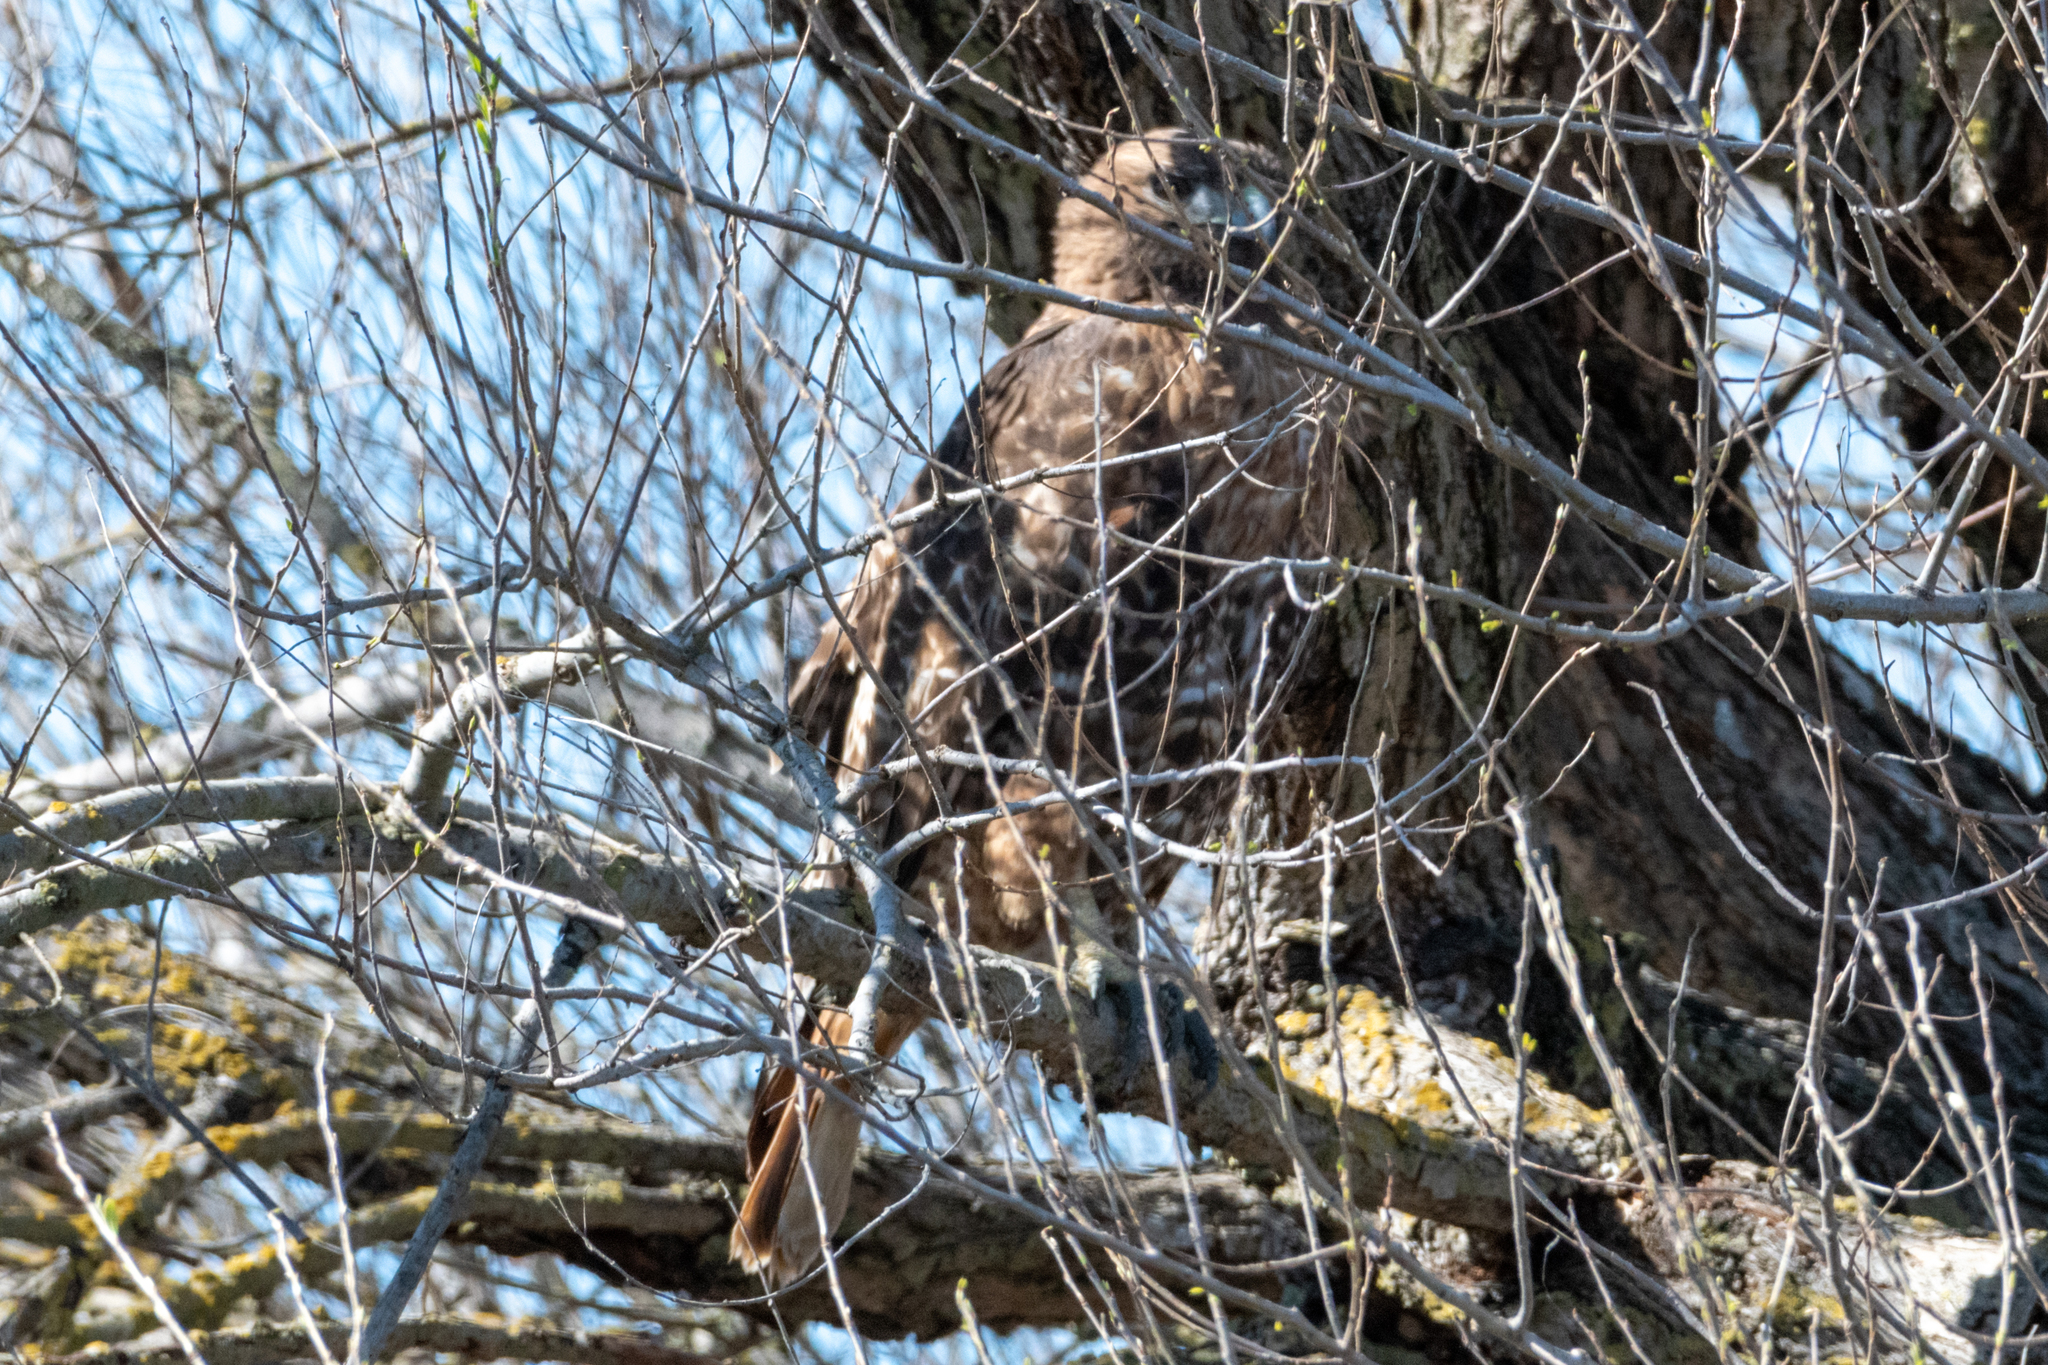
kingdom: Animalia
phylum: Chordata
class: Aves
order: Accipitriformes
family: Accipitridae
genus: Buteo
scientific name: Buteo jamaicensis
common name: Red-tailed hawk
